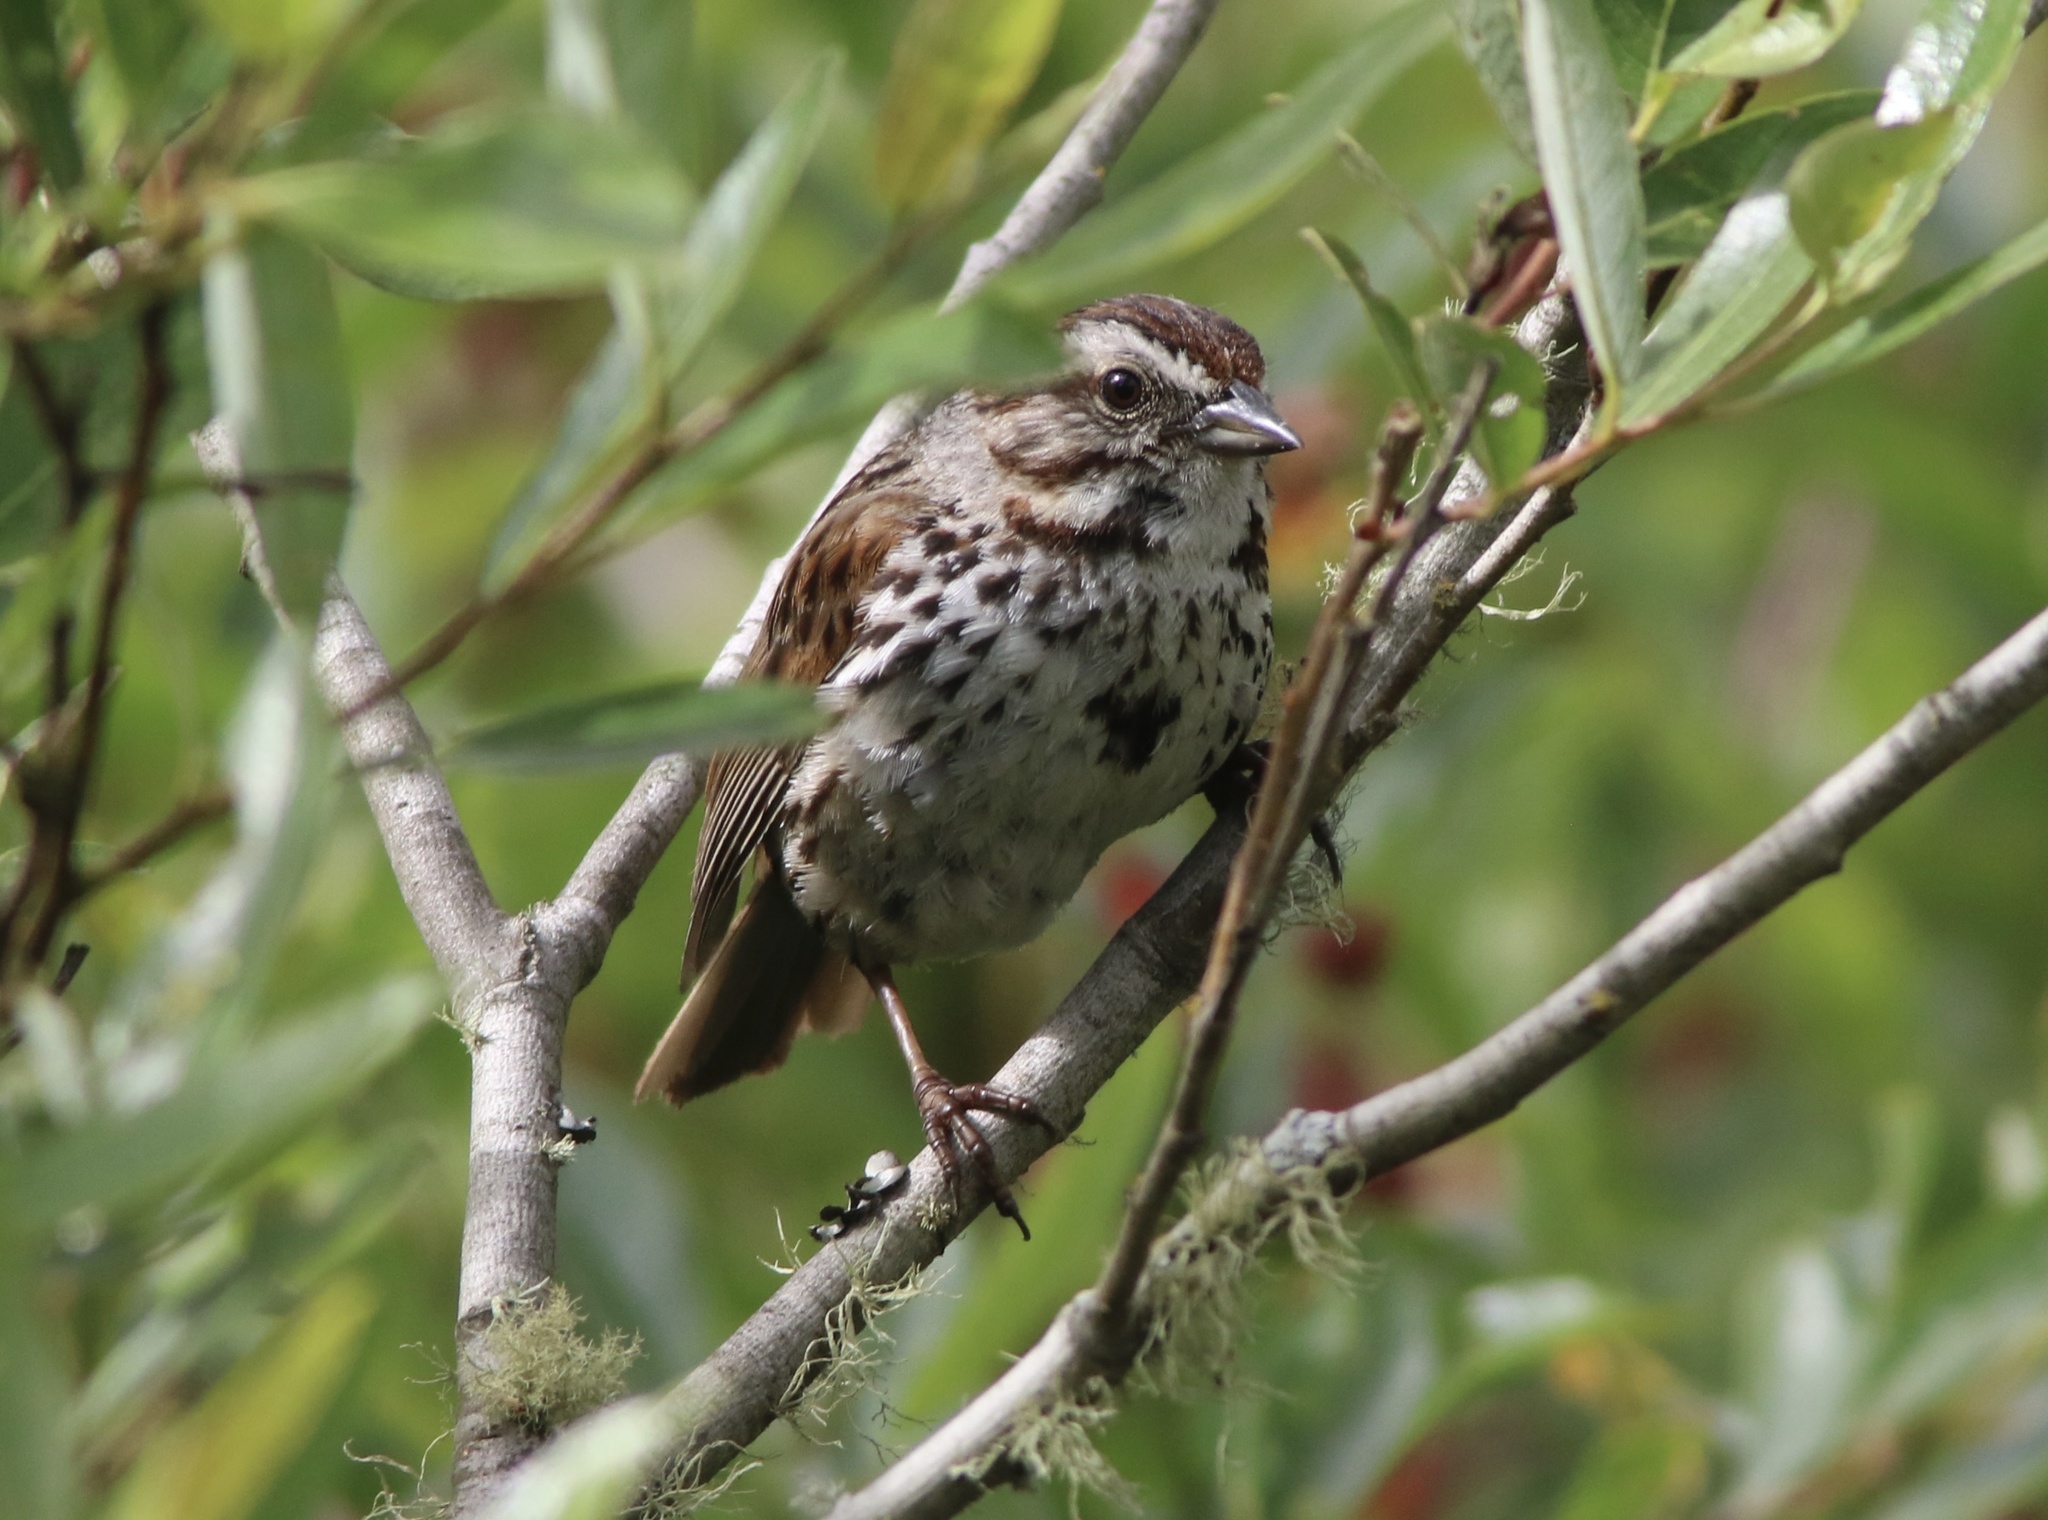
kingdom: Animalia
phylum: Chordata
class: Aves
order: Passeriformes
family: Passerellidae
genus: Melospiza
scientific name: Melospiza melodia
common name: Song sparrow
